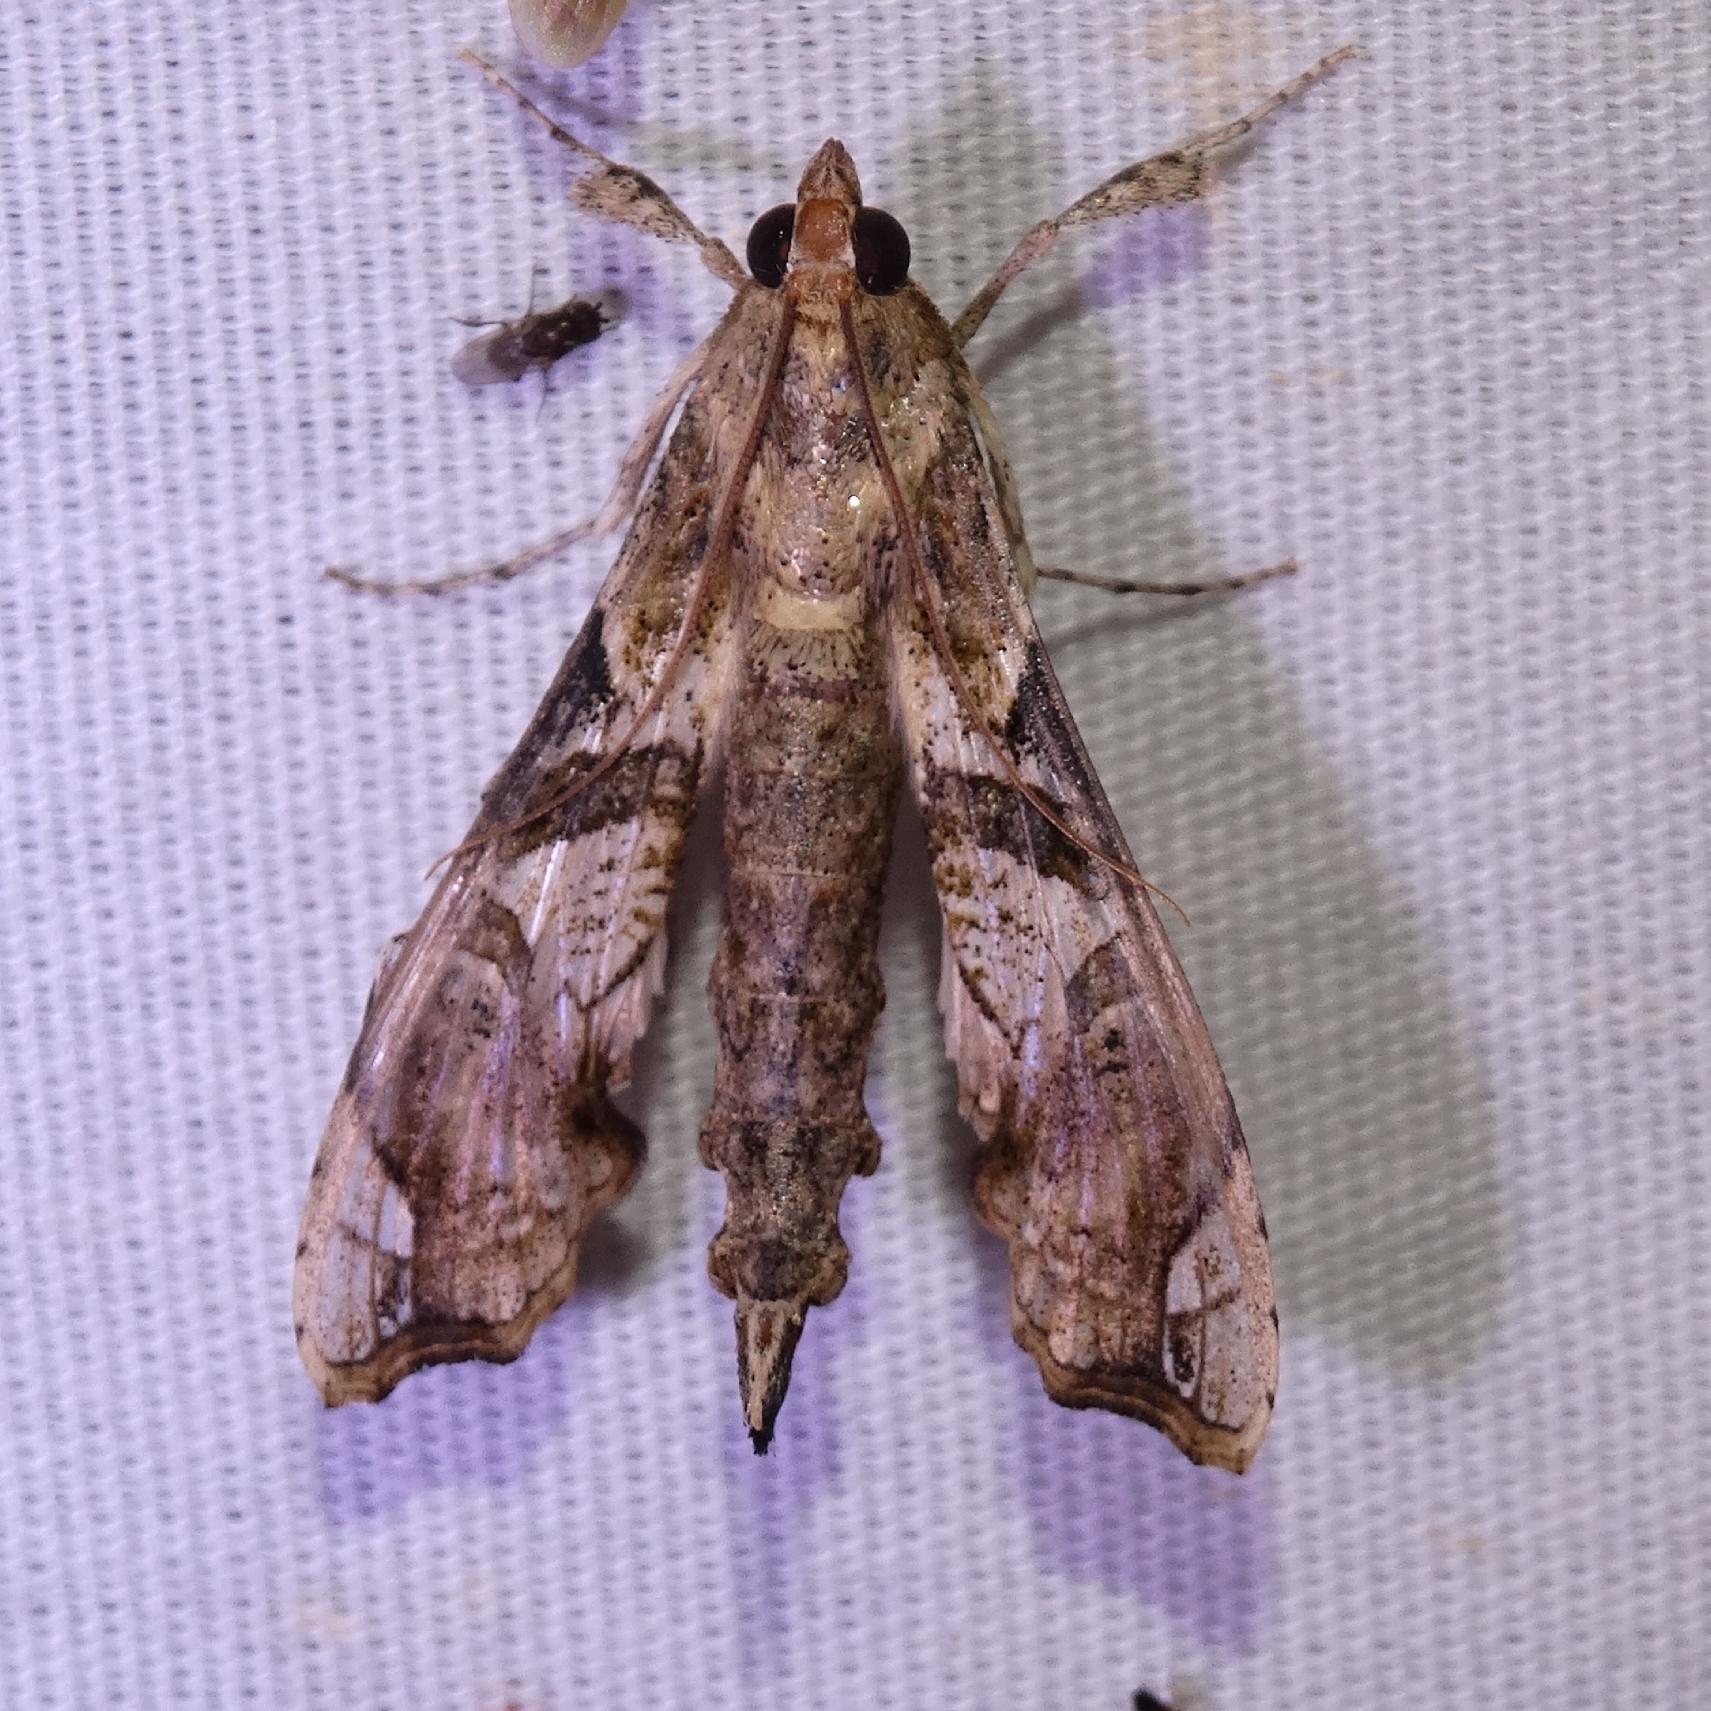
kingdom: Animalia
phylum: Arthropoda
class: Insecta
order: Lepidoptera
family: Crambidae
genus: Terastia
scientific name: Terastia meticulosalis
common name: Moth
